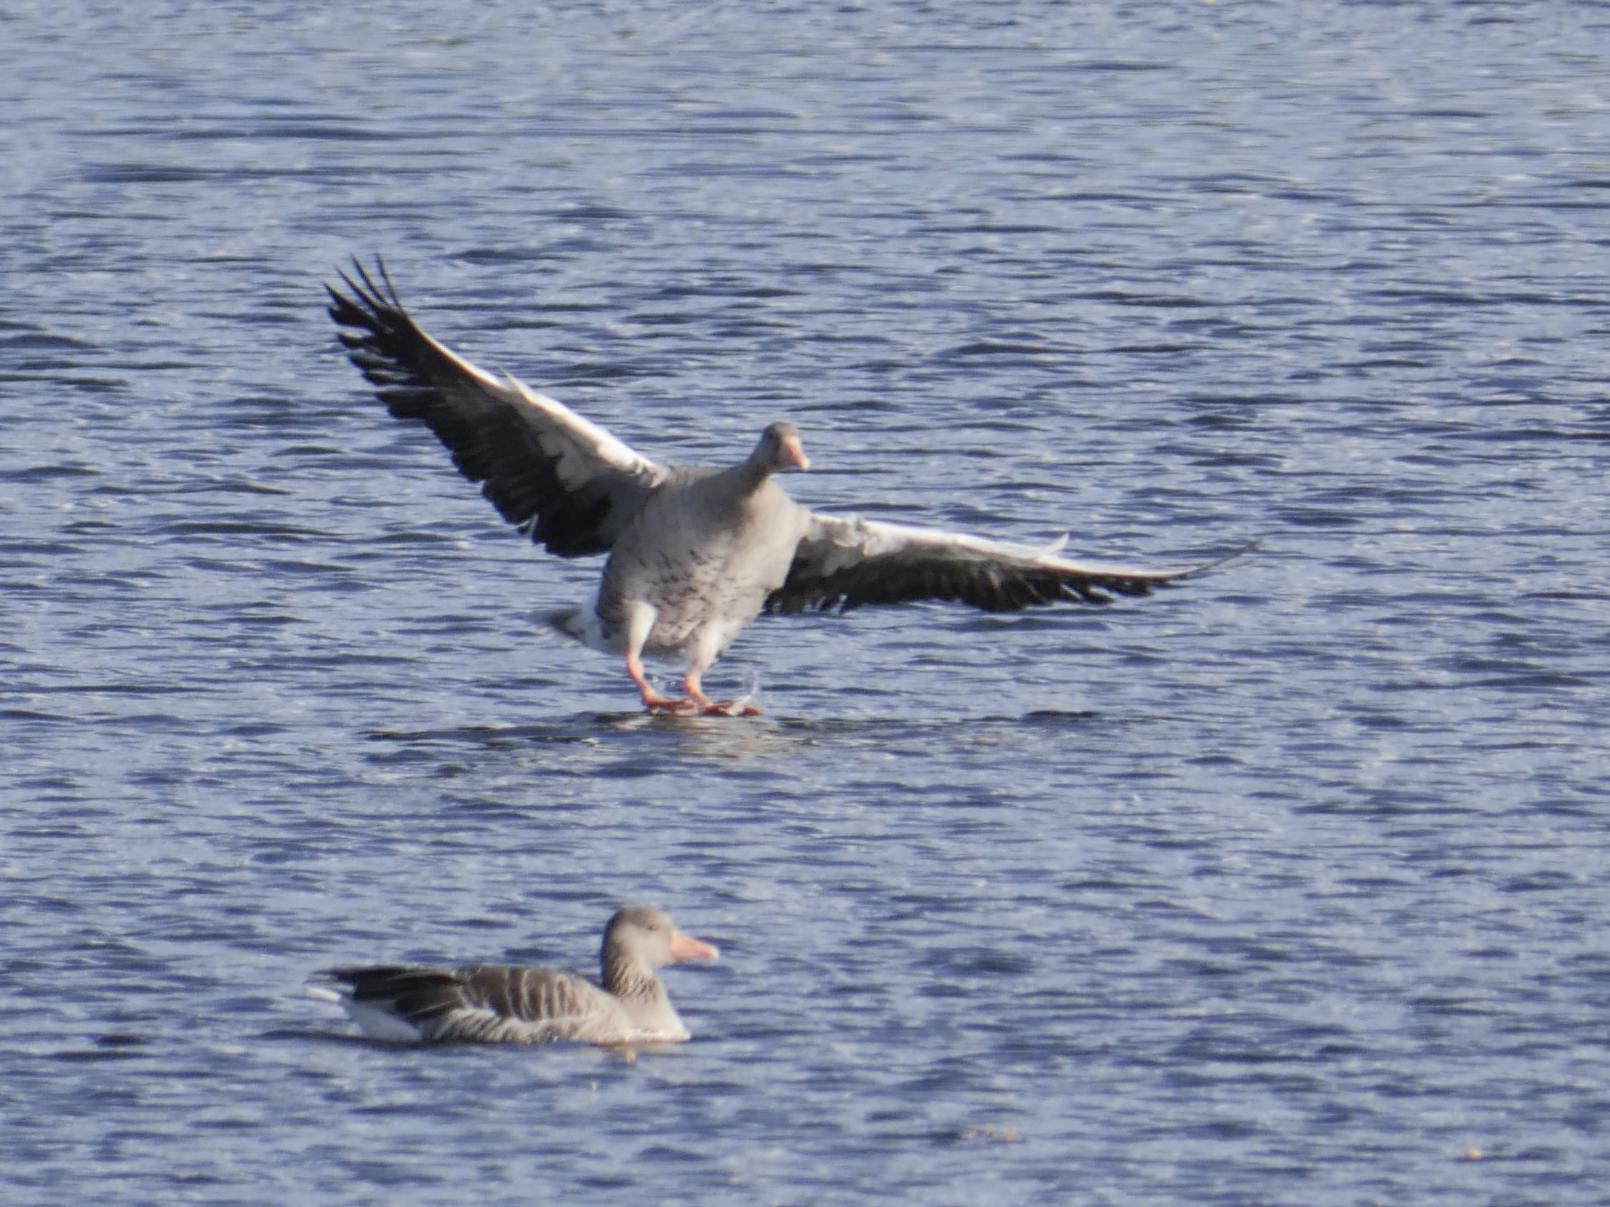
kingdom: Animalia
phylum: Chordata
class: Aves
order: Anseriformes
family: Anatidae
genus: Anser
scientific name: Anser anser
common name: Greylag goose
